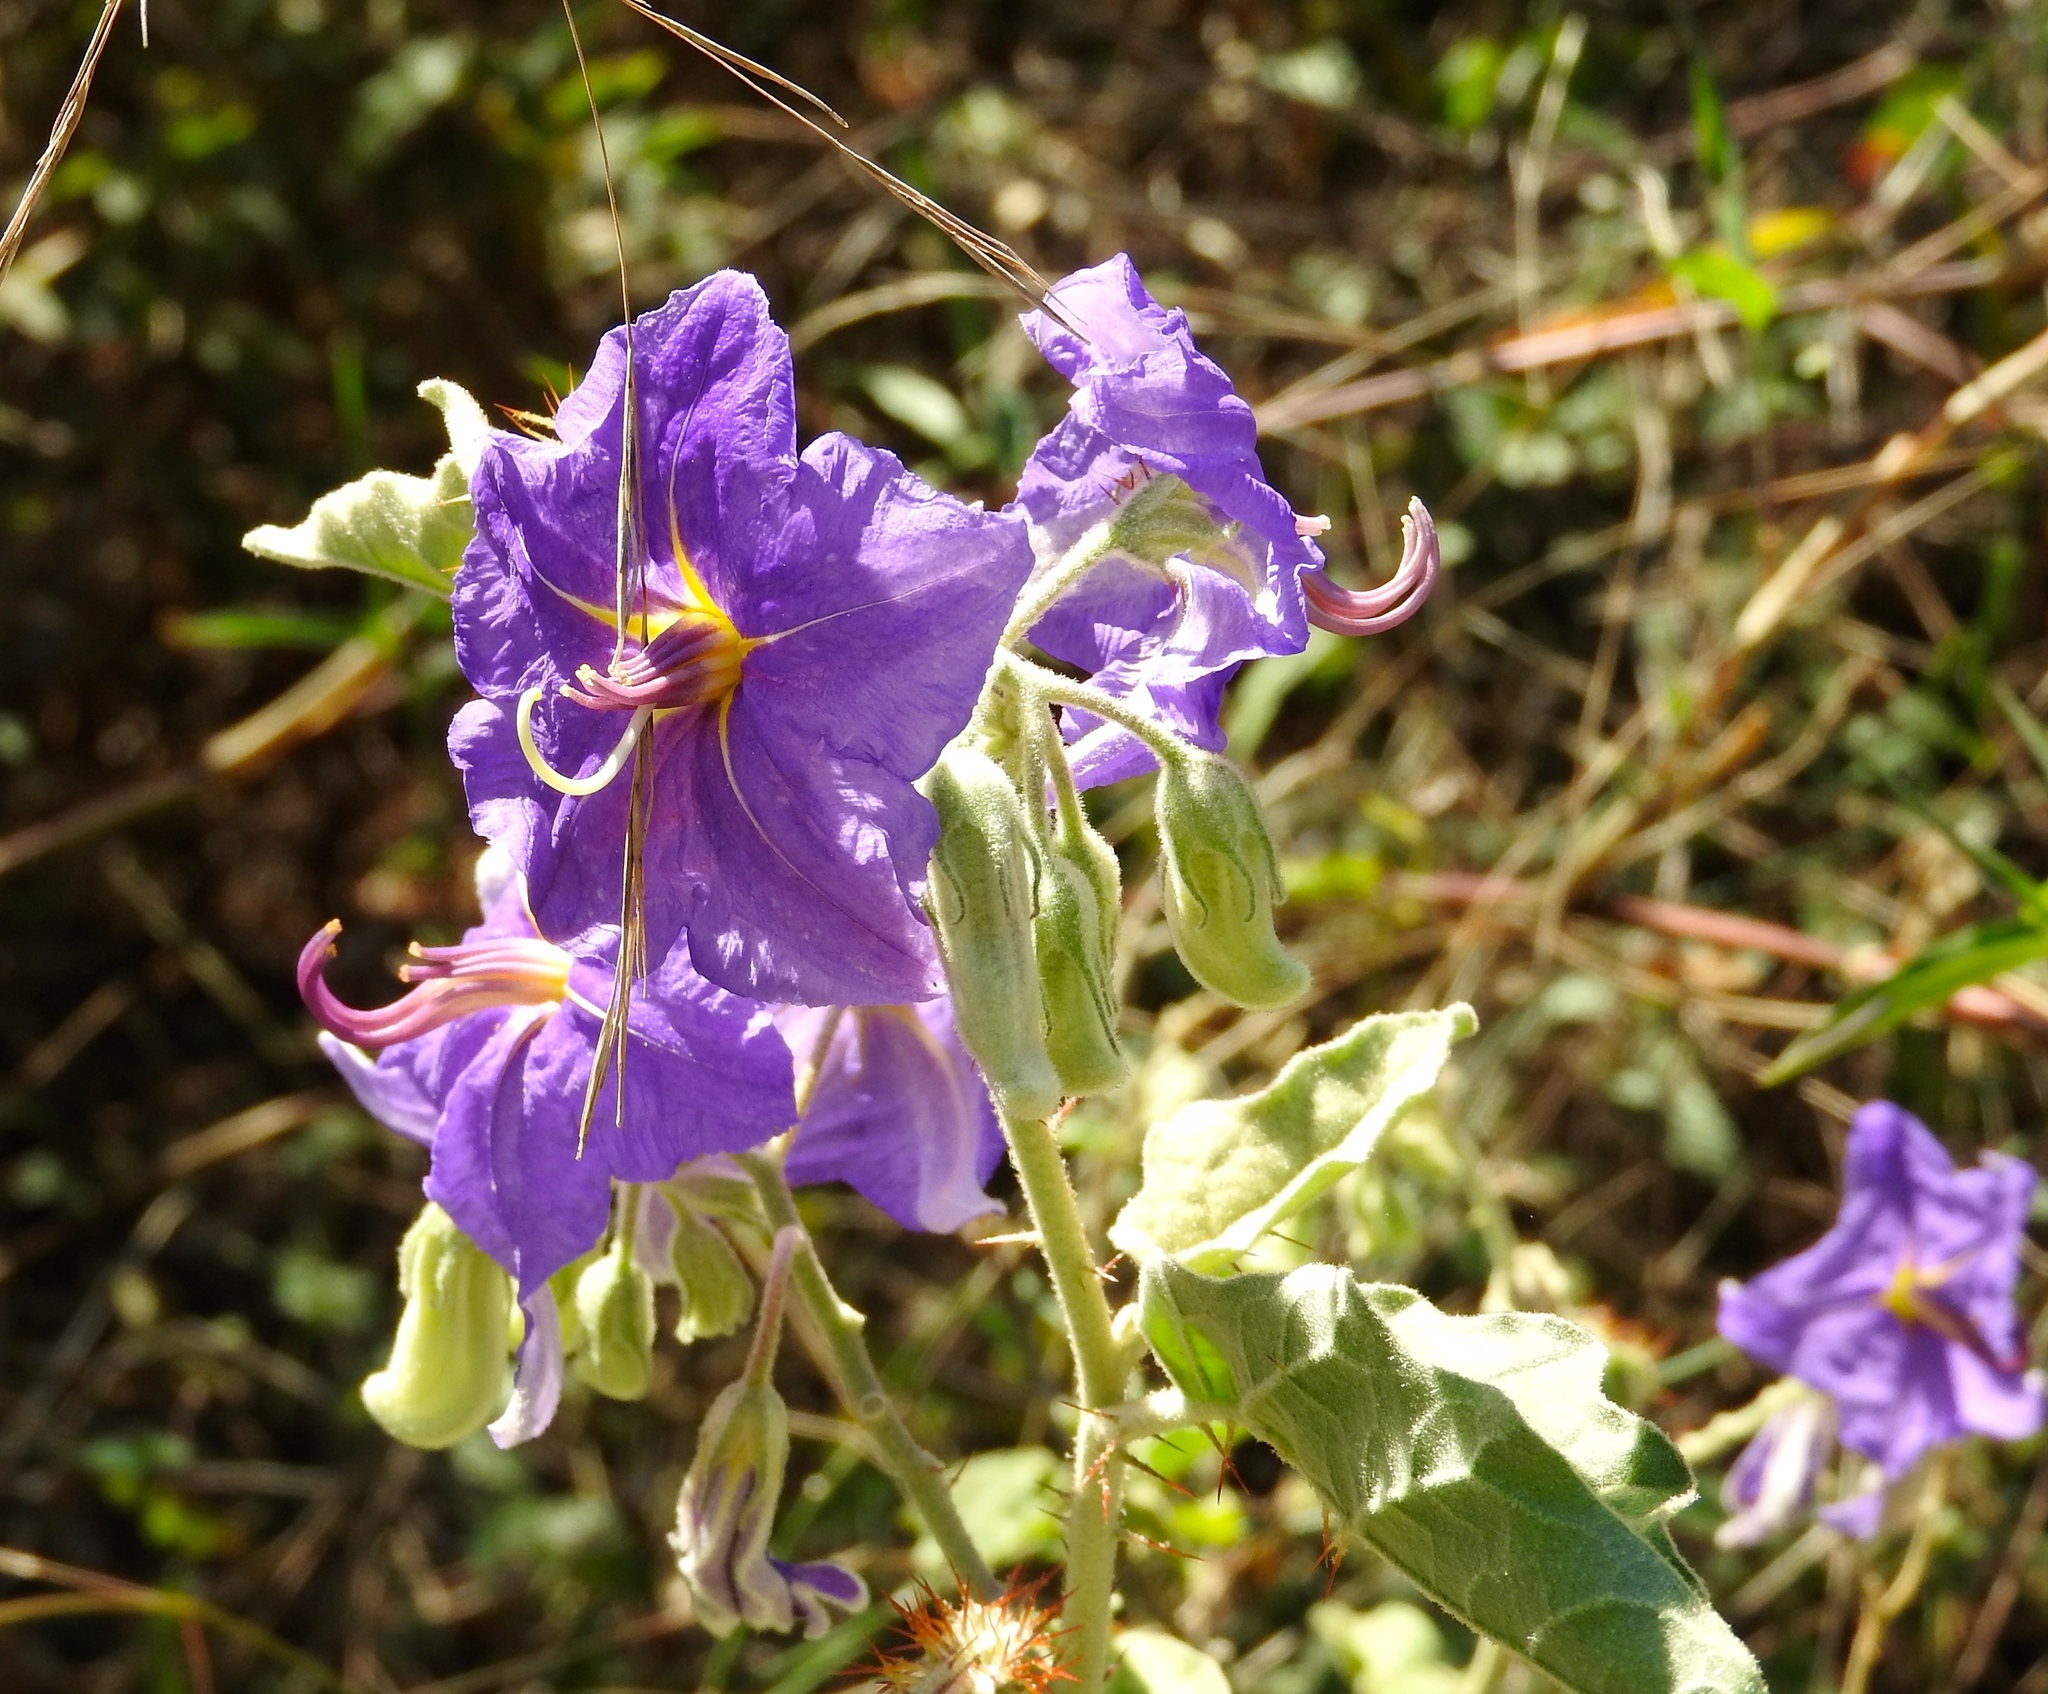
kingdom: Plantae
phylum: Tracheophyta
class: Magnoliopsida
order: Solanales
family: Solanaceae
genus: Solanum
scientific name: Solanum houstonii
